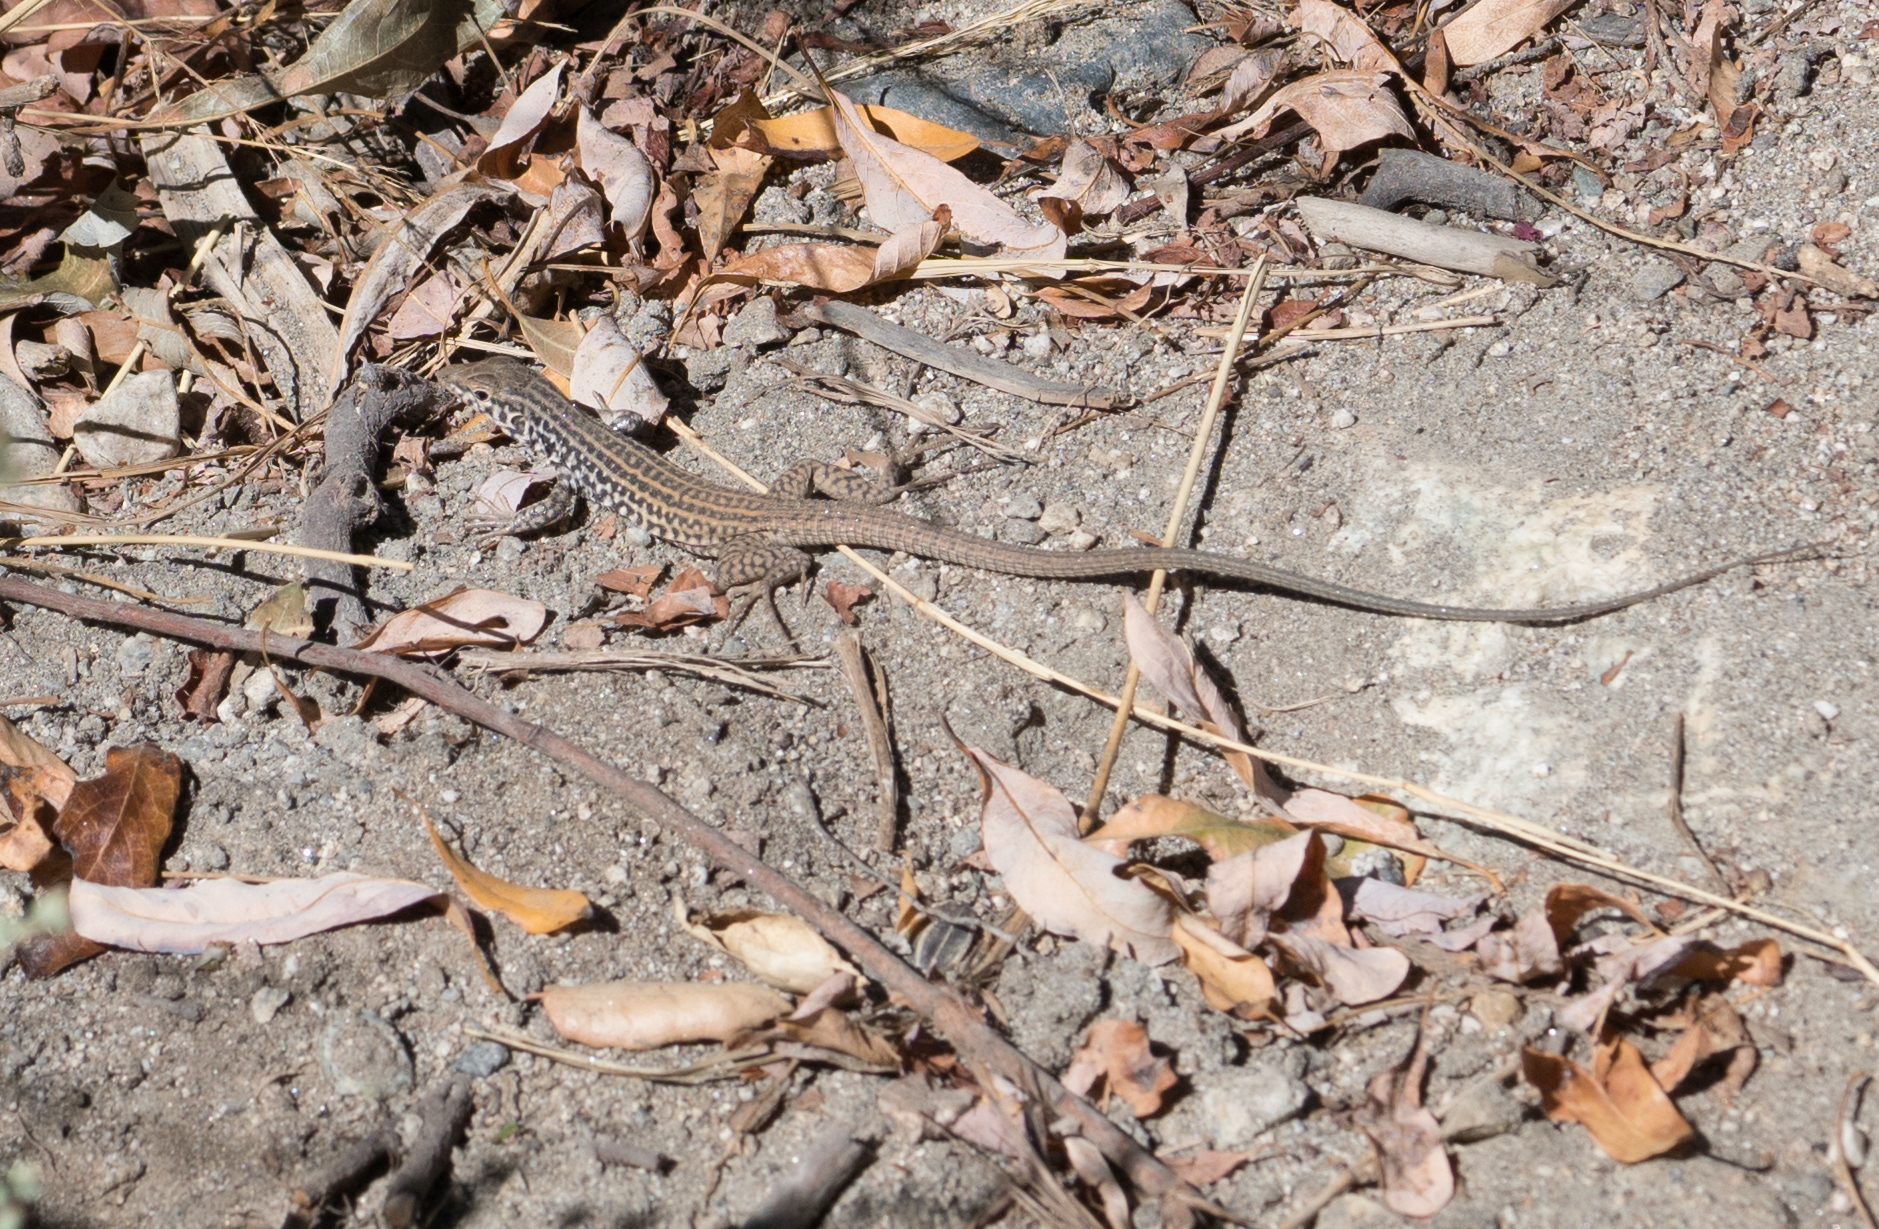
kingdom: Animalia
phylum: Chordata
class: Squamata
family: Teiidae
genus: Aspidoscelis
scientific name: Aspidoscelis tigris
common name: Tiger whiptail
